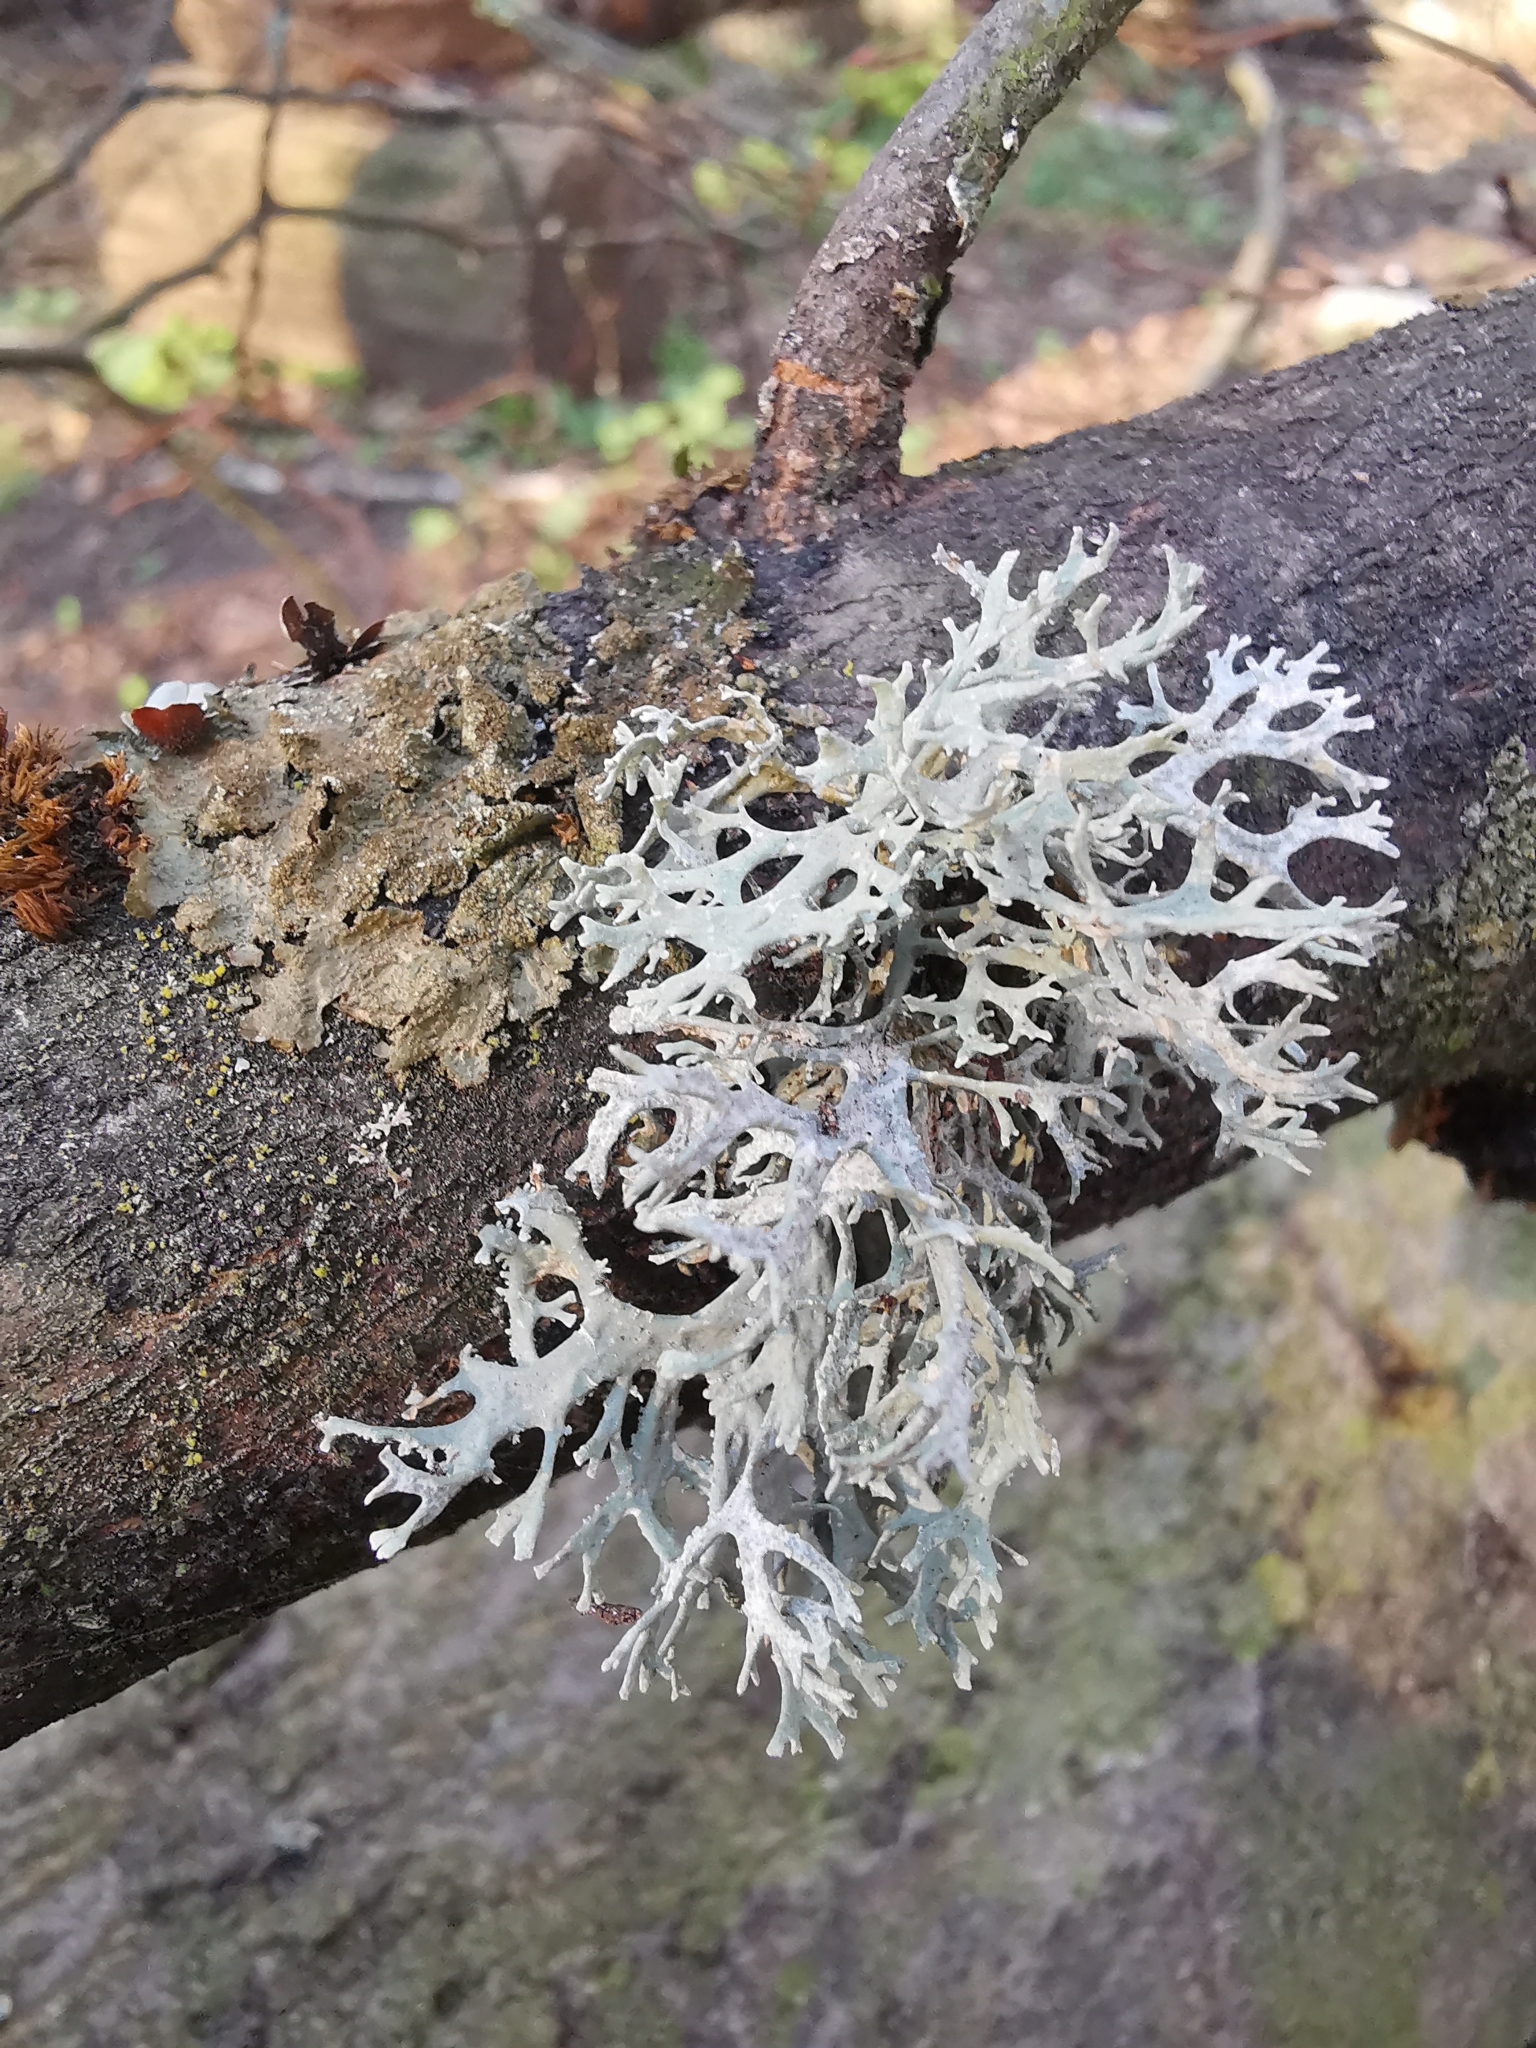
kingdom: Fungi
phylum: Ascomycota
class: Lecanoromycetes
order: Lecanorales
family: Parmeliaceae
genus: Evernia
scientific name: Evernia prunastri
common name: Oak moss
